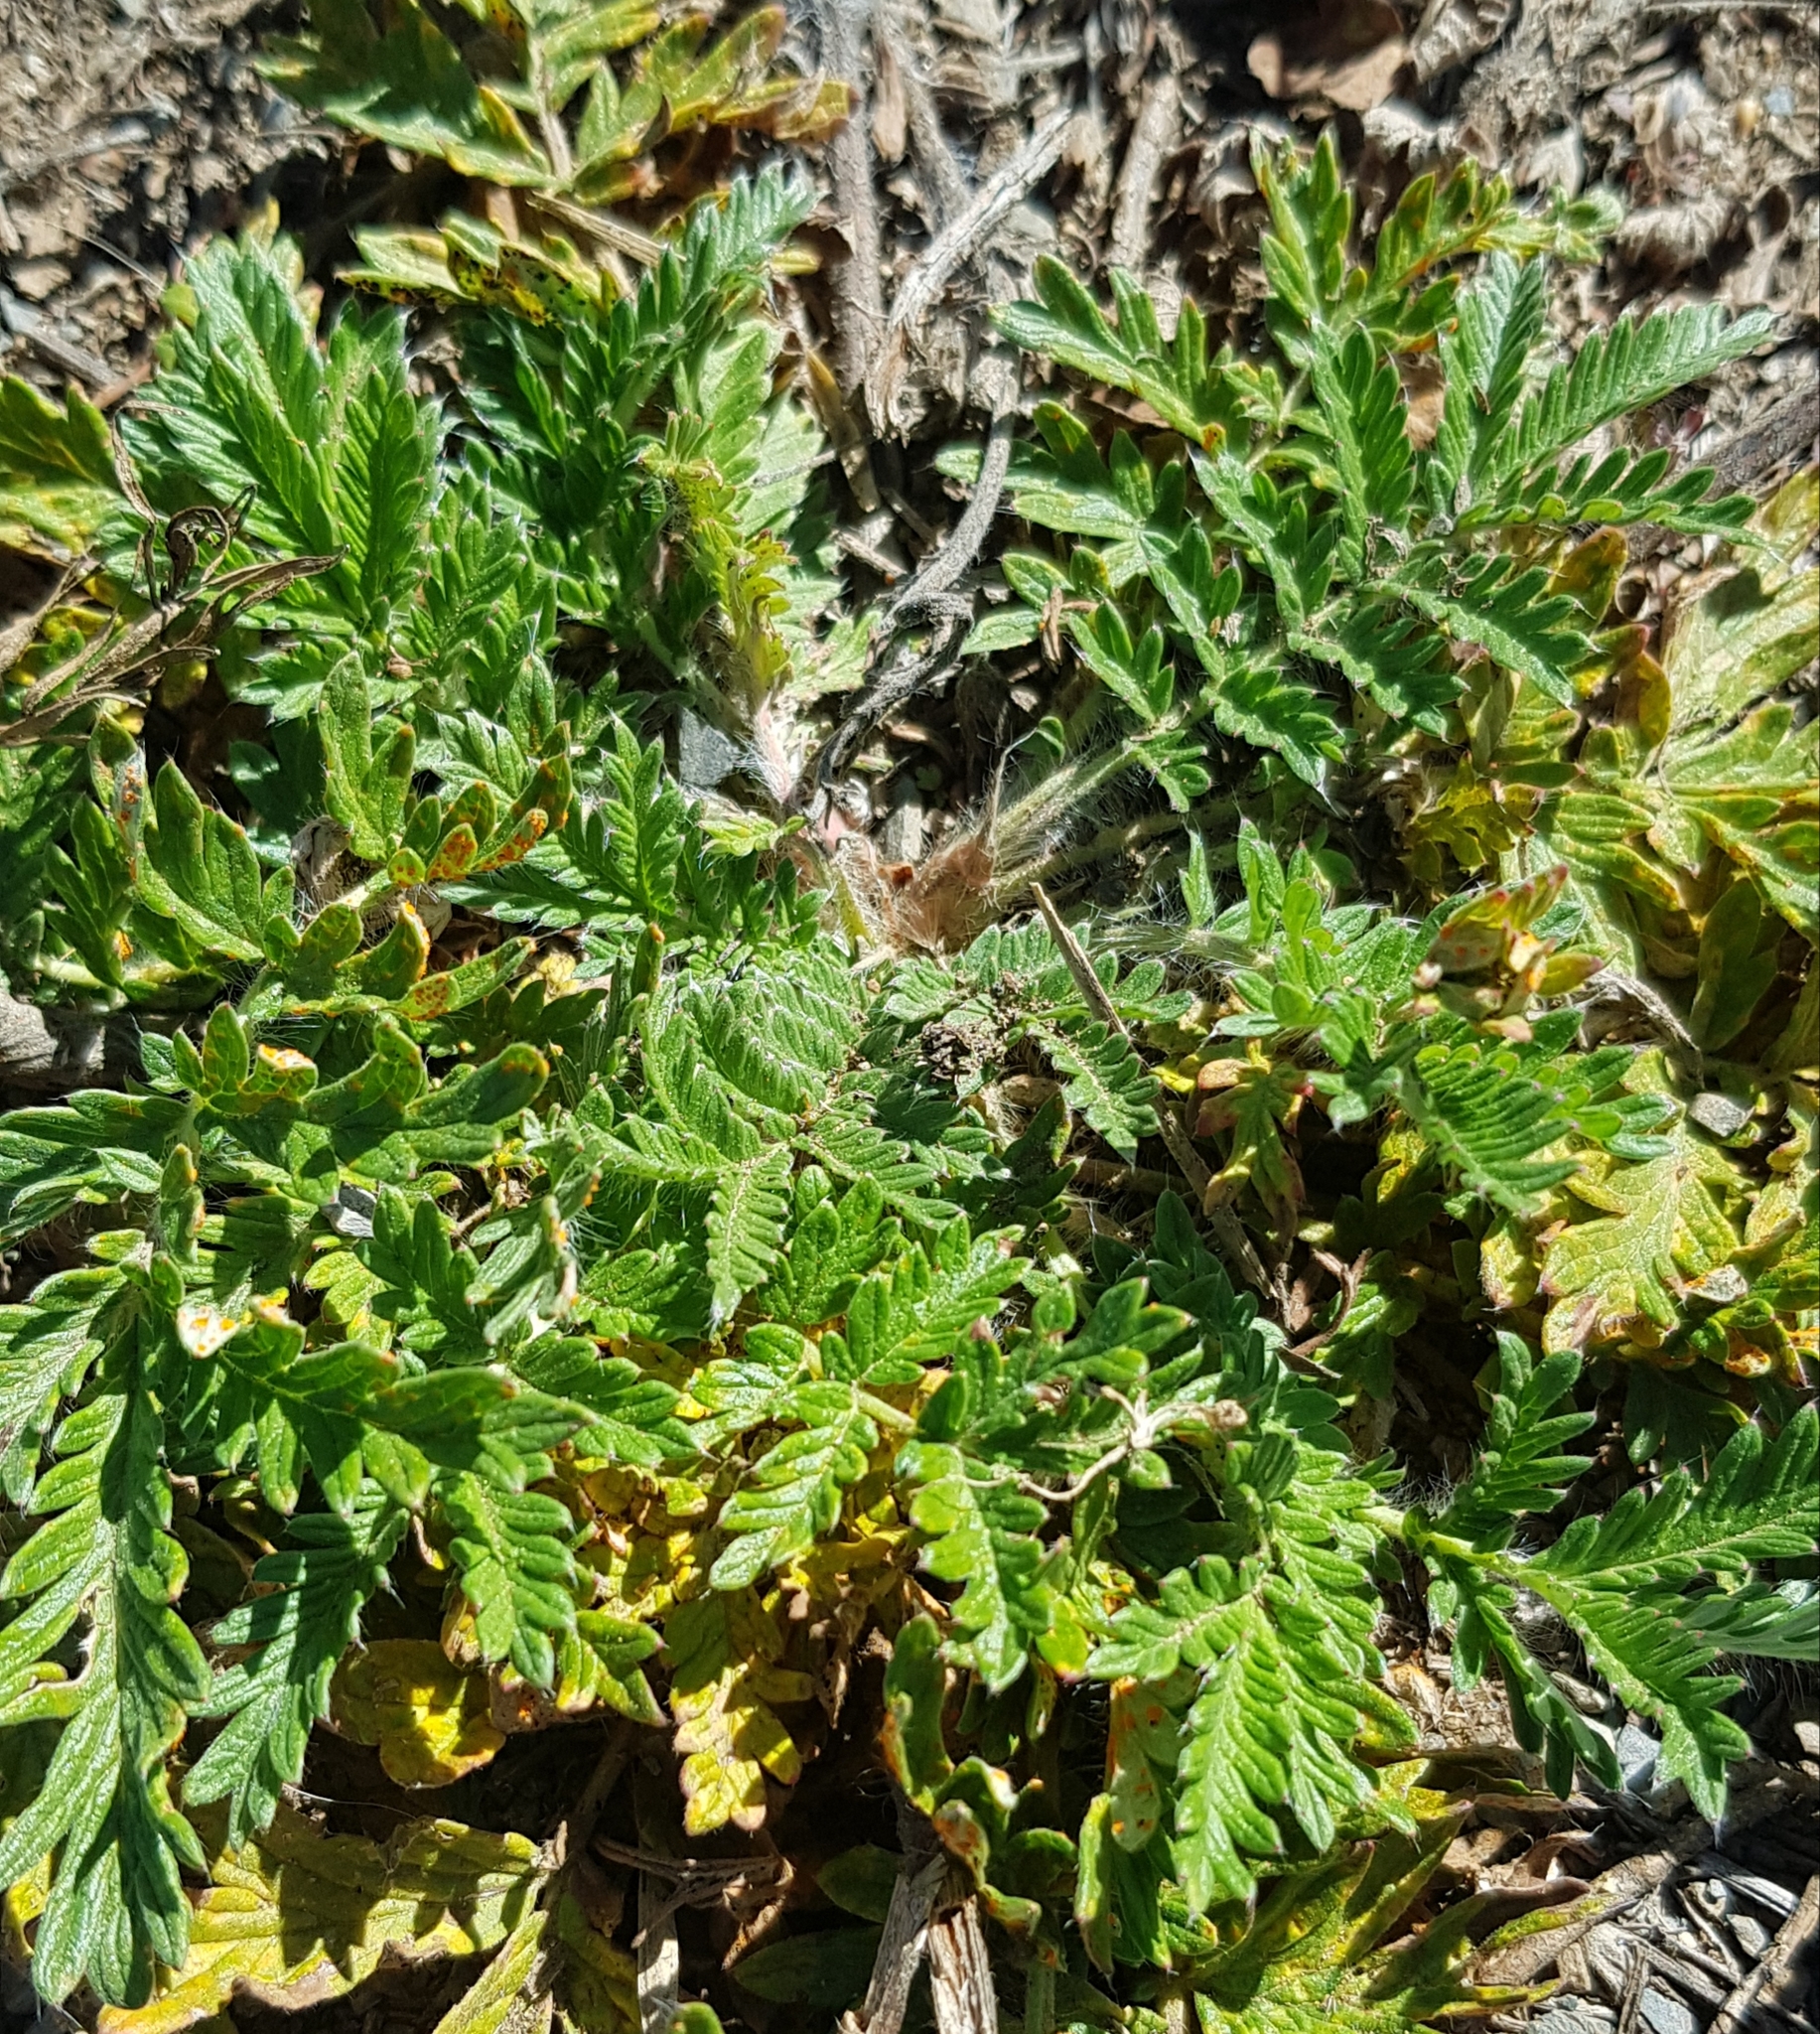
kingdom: Plantae
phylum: Tracheophyta
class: Magnoliopsida
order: Rosales
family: Rosaceae
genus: Potentilla
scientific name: Potentilla tanacetifolia
